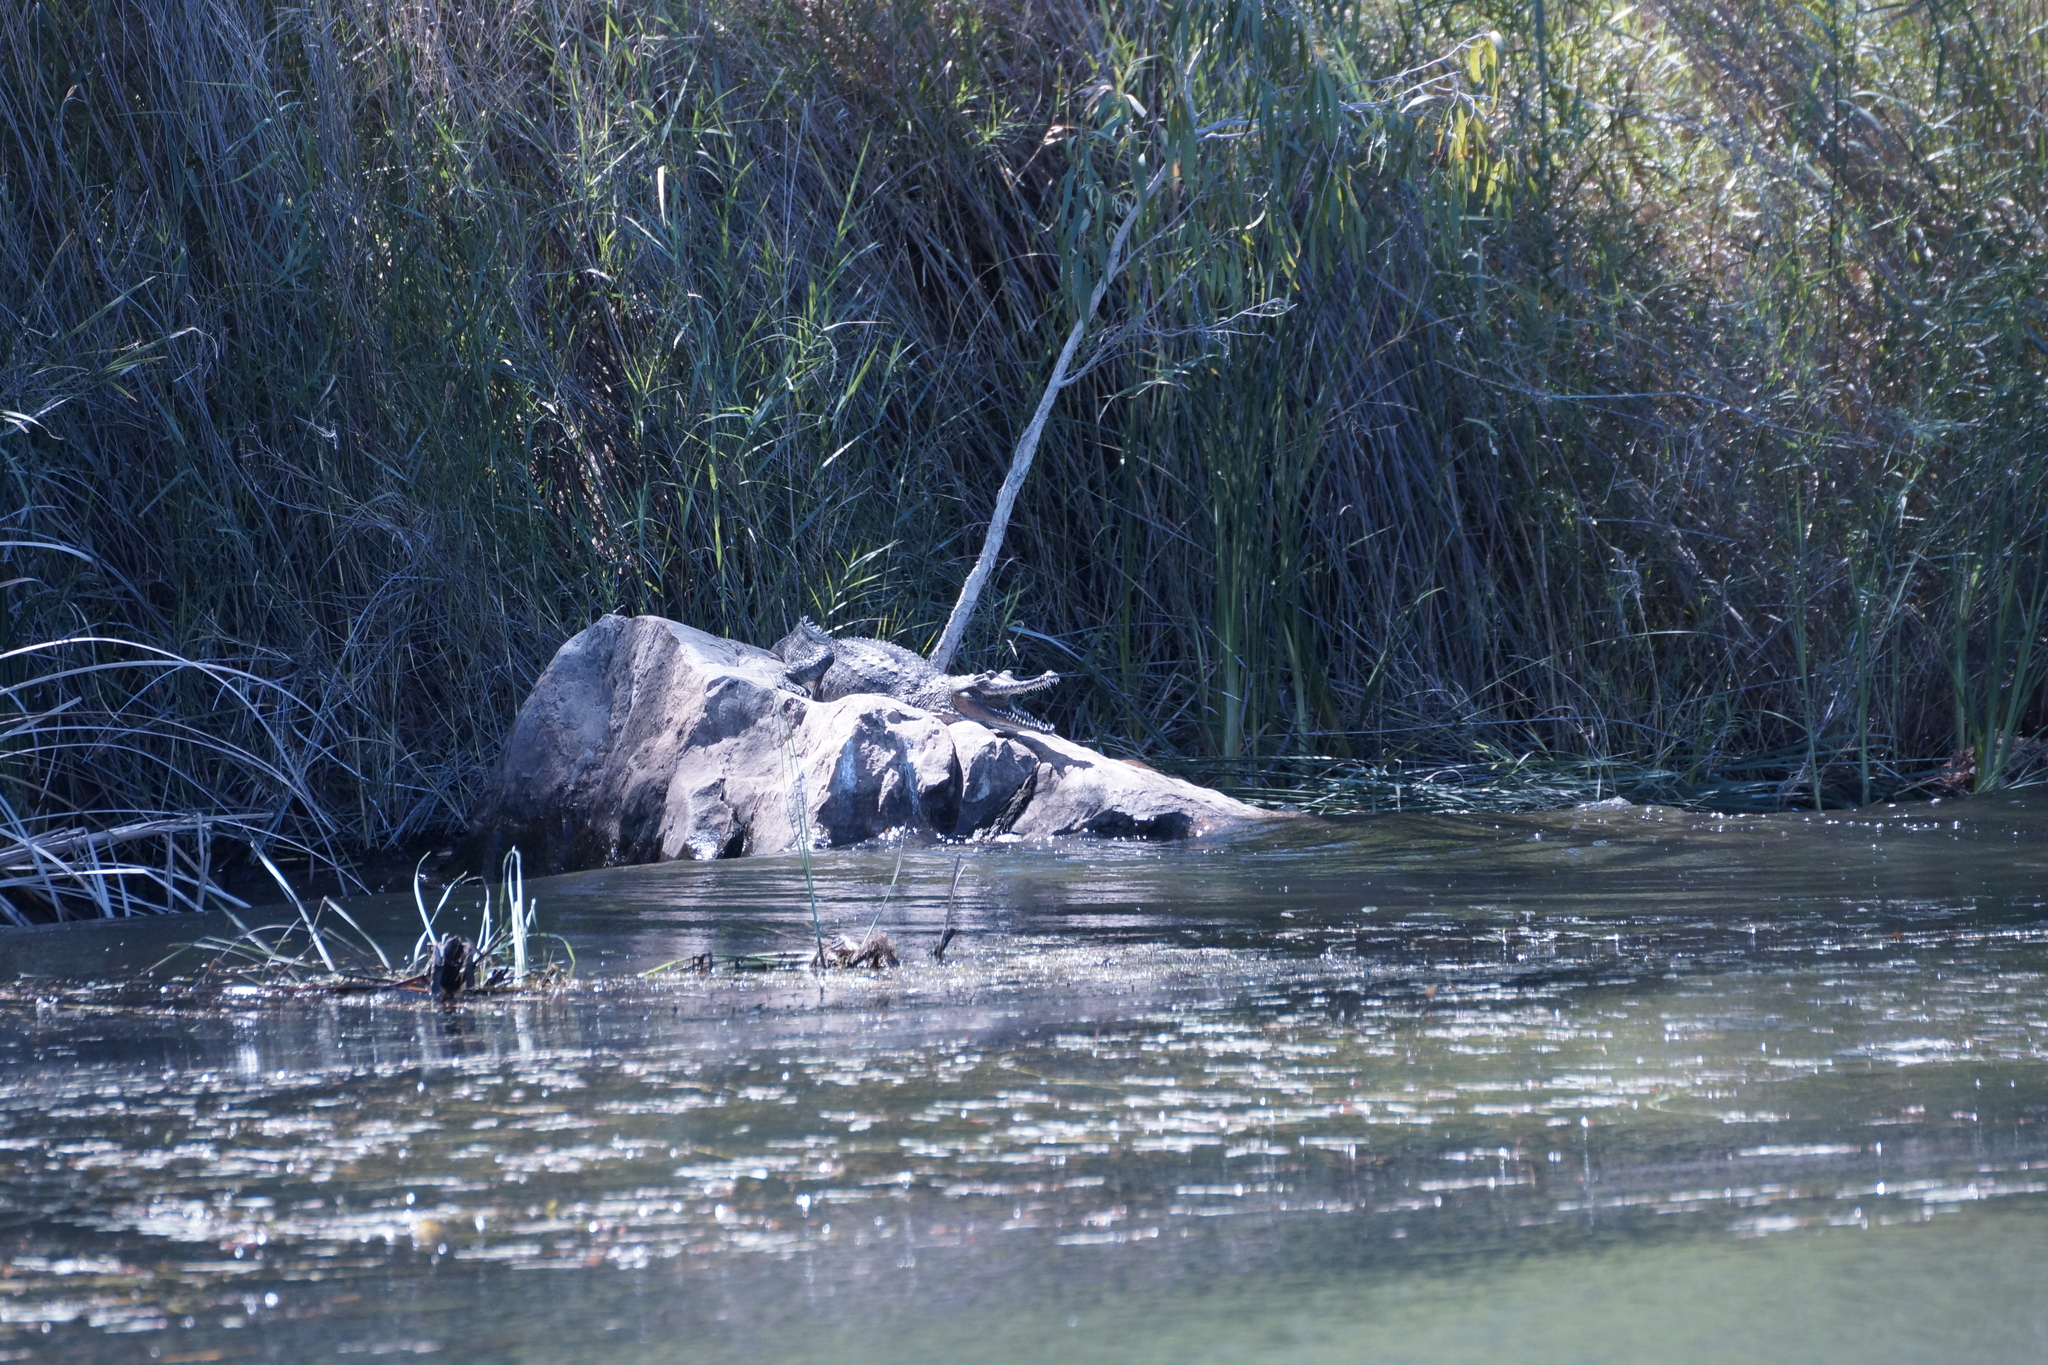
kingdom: Animalia
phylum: Chordata
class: Crocodylia
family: Crocodylidae
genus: Crocodylus
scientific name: Crocodylus johnsoni
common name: Freshwater crocodile
